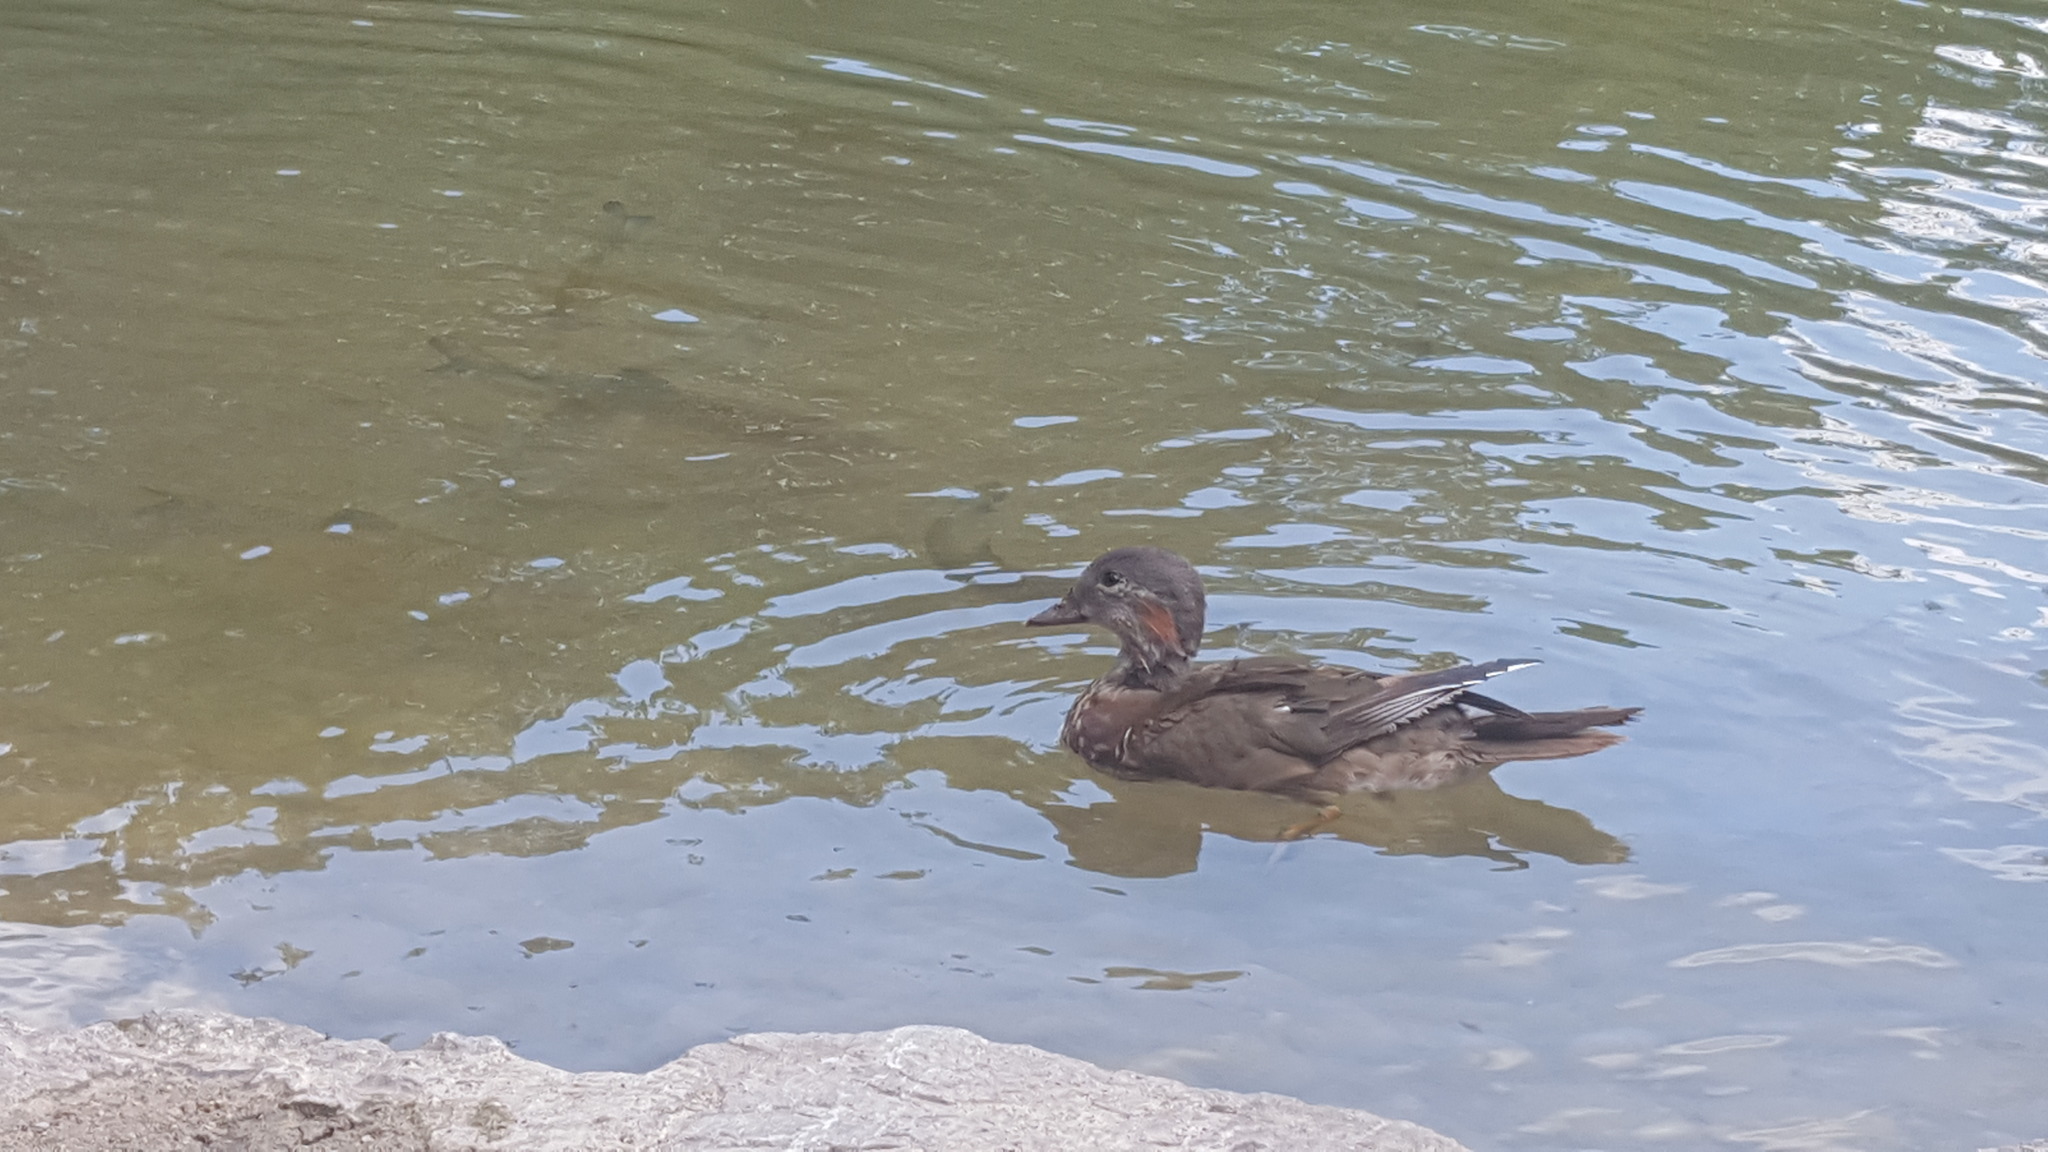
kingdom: Animalia
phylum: Chordata
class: Aves
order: Anseriformes
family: Anatidae
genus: Aix
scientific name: Aix galericulata
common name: Mandarin duck
